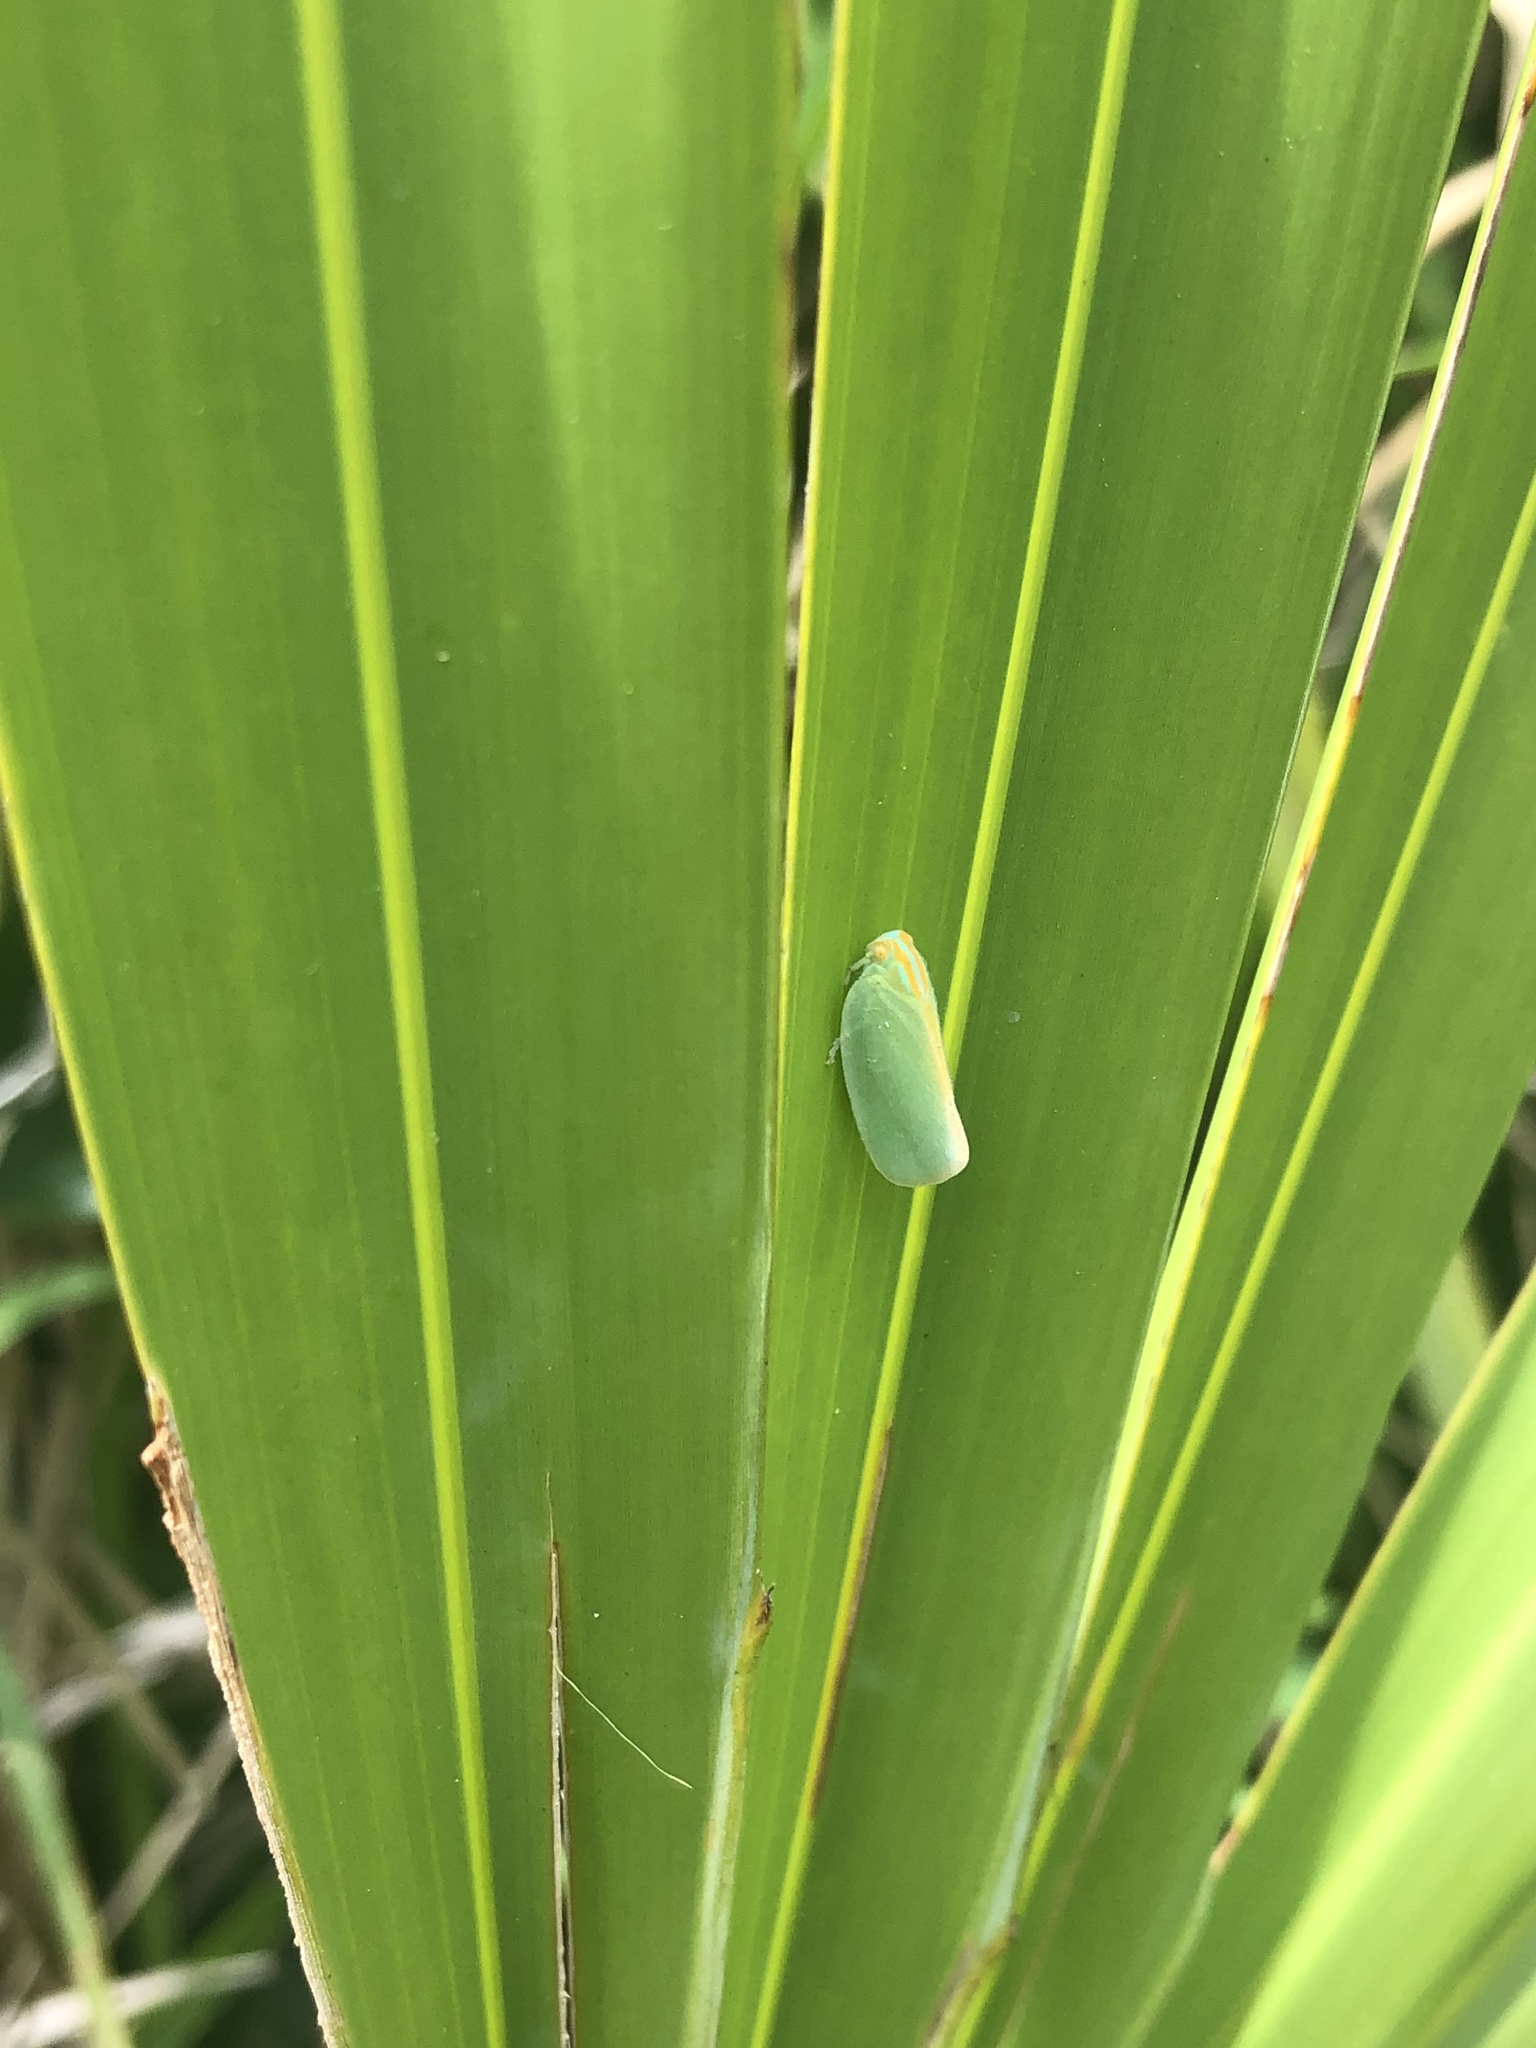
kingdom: Animalia
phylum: Arthropoda
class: Insecta
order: Hemiptera
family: Flatidae
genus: Ormenaria
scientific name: Ormenaria rufifascia
